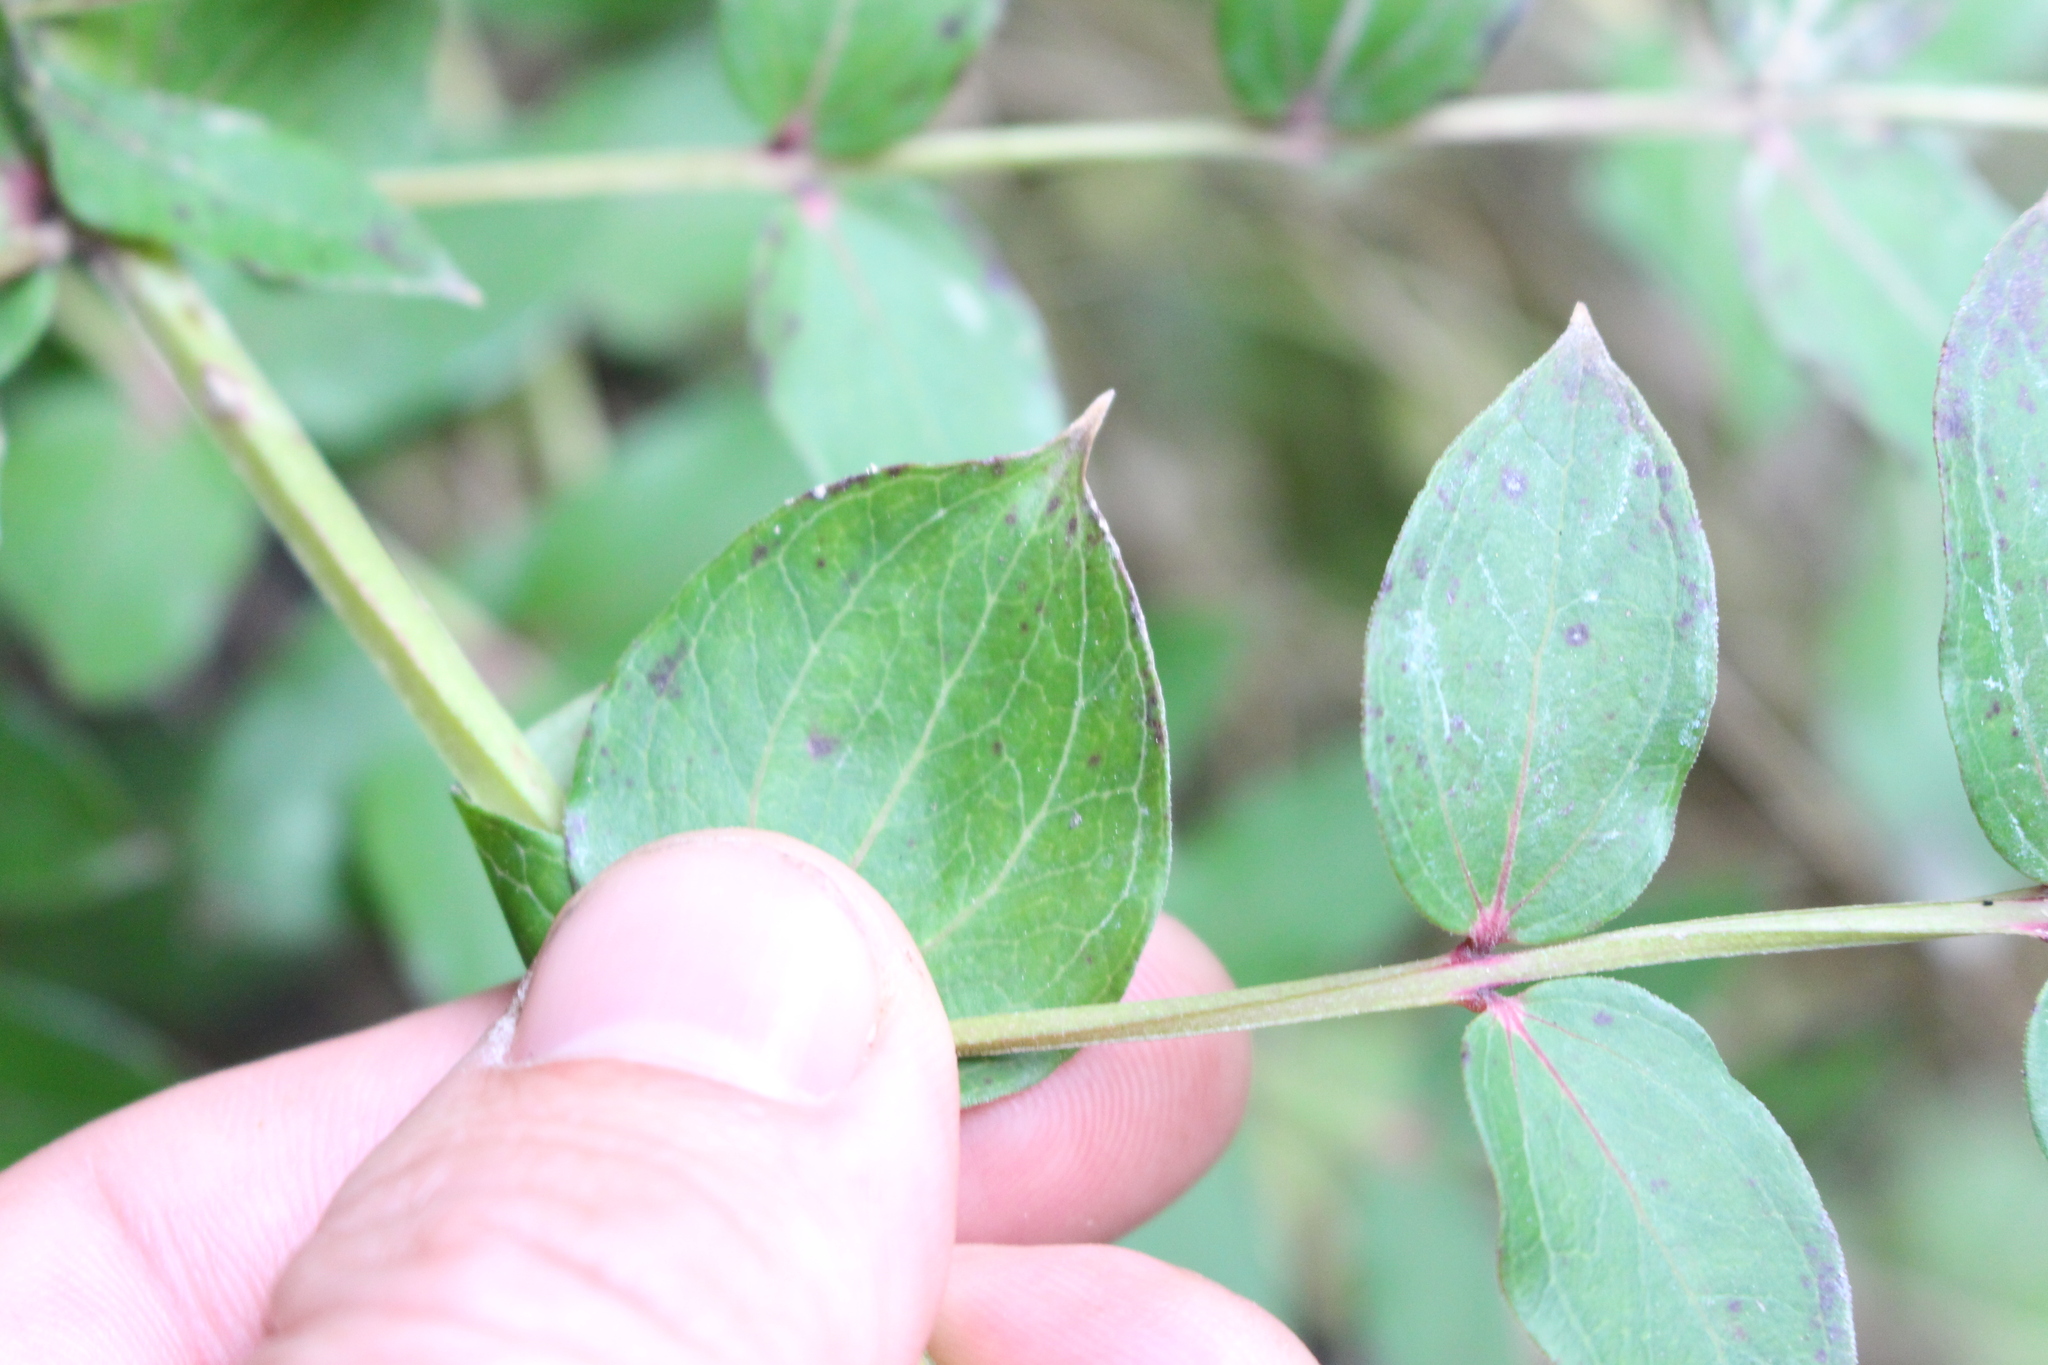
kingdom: Plantae
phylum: Tracheophyta
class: Magnoliopsida
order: Cucurbitales
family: Coriariaceae
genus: Coriaria
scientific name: Coriaria sarmentosa
